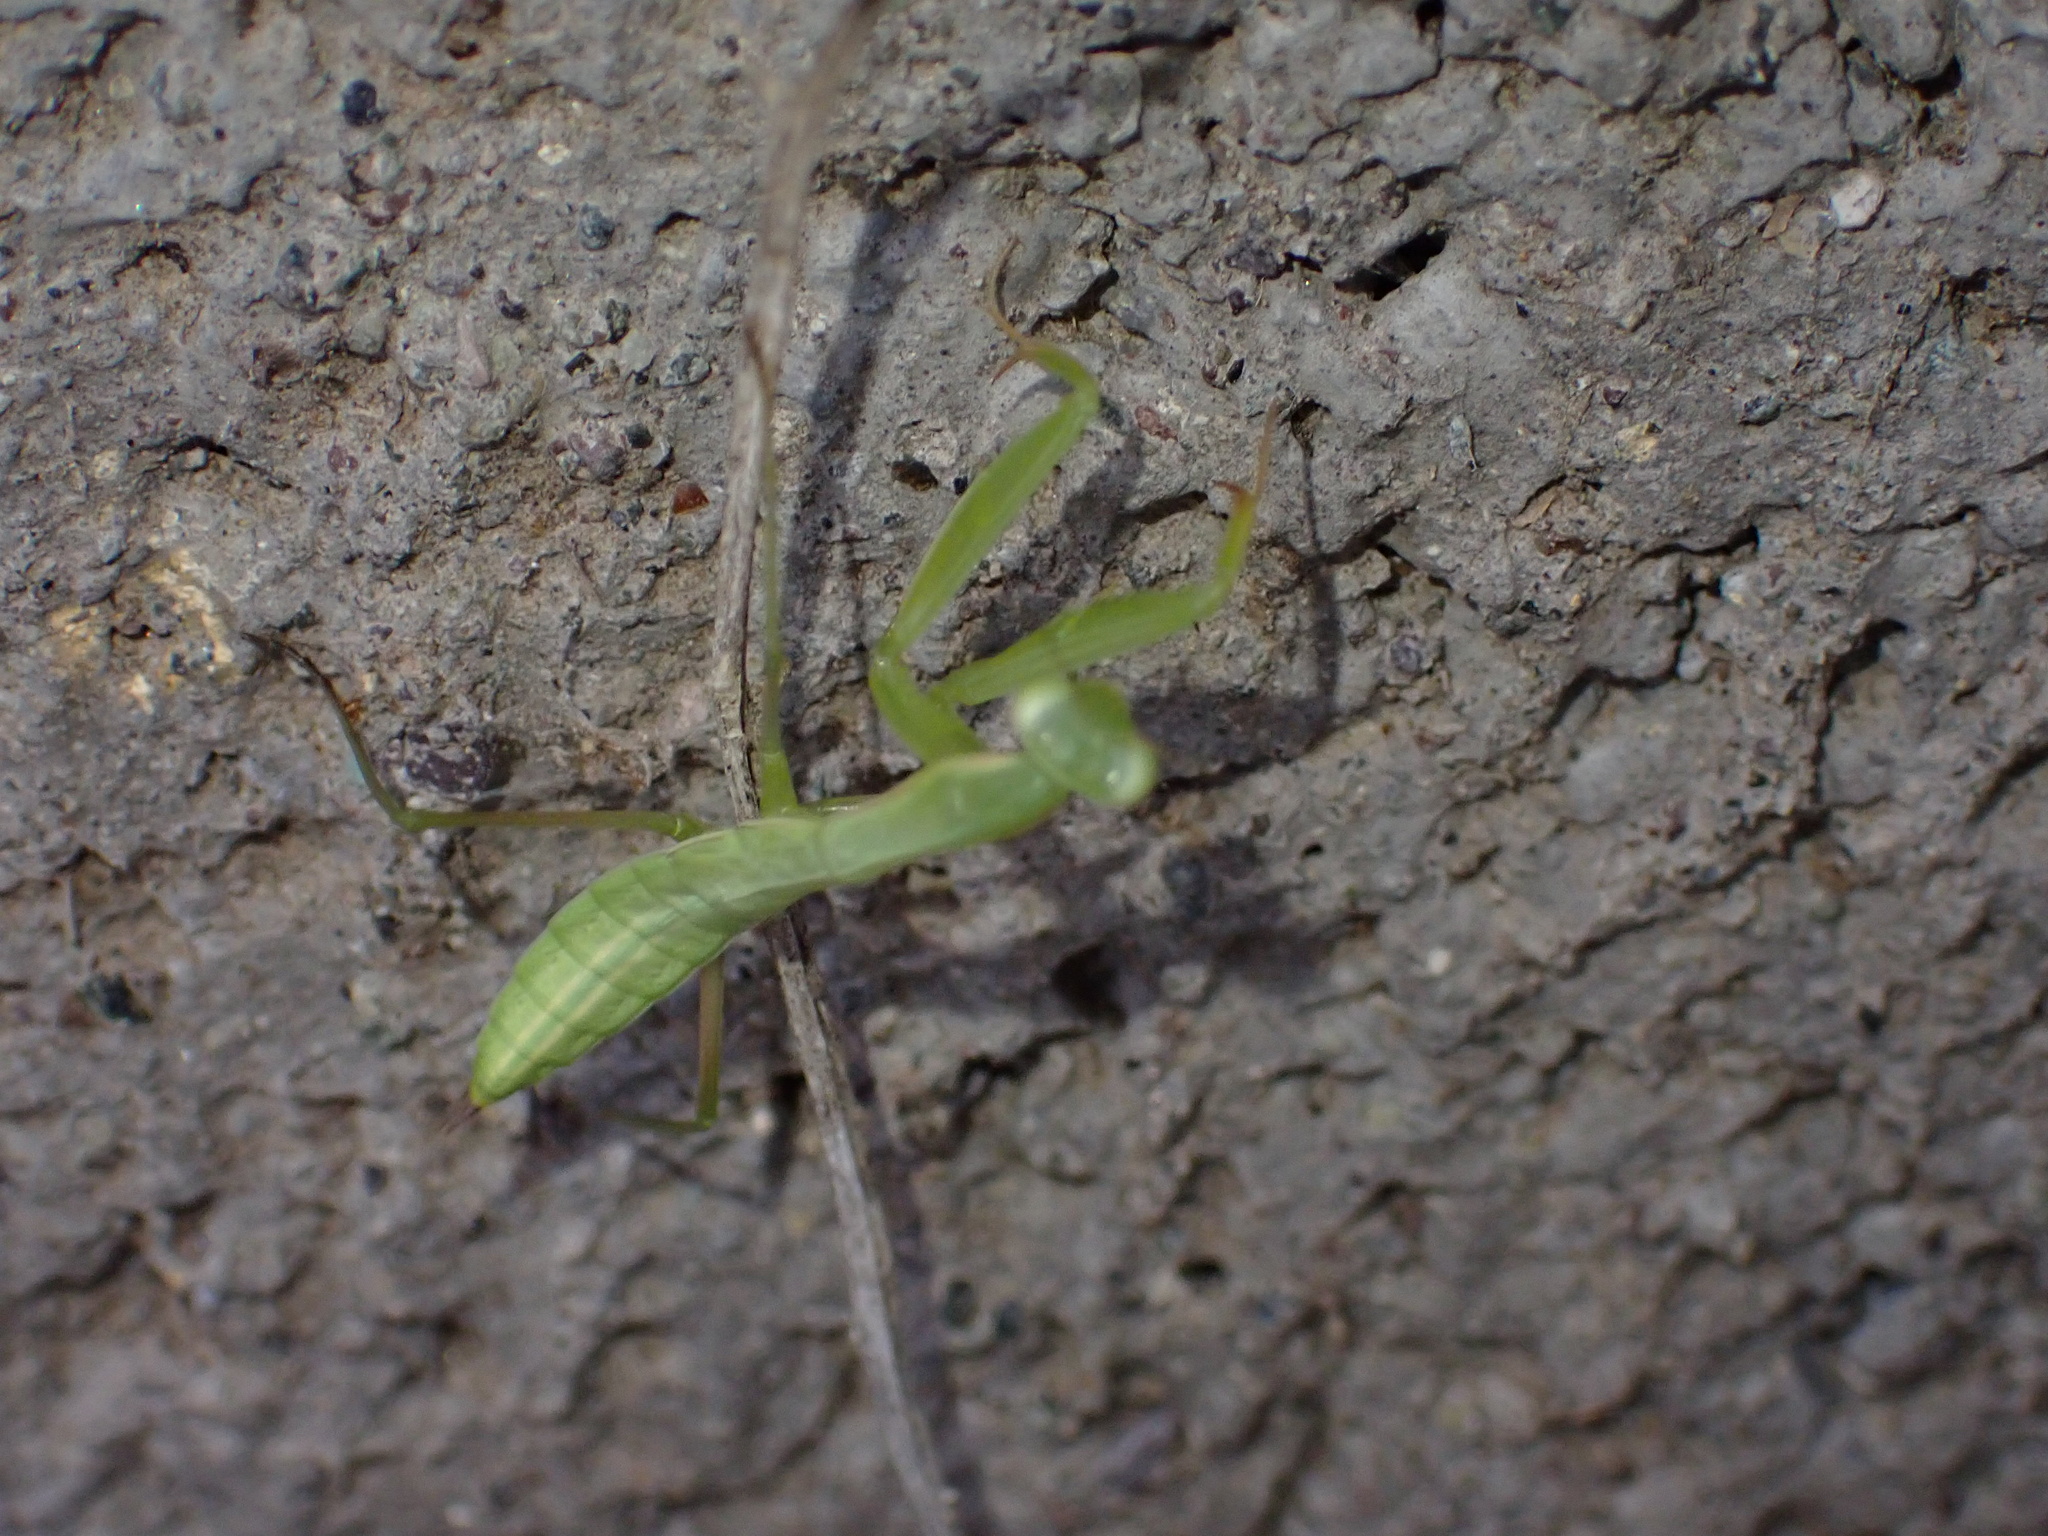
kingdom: Animalia
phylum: Arthropoda
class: Insecta
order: Mantodea
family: Mantidae
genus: Mantis
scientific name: Mantis religiosa
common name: Praying mantis
